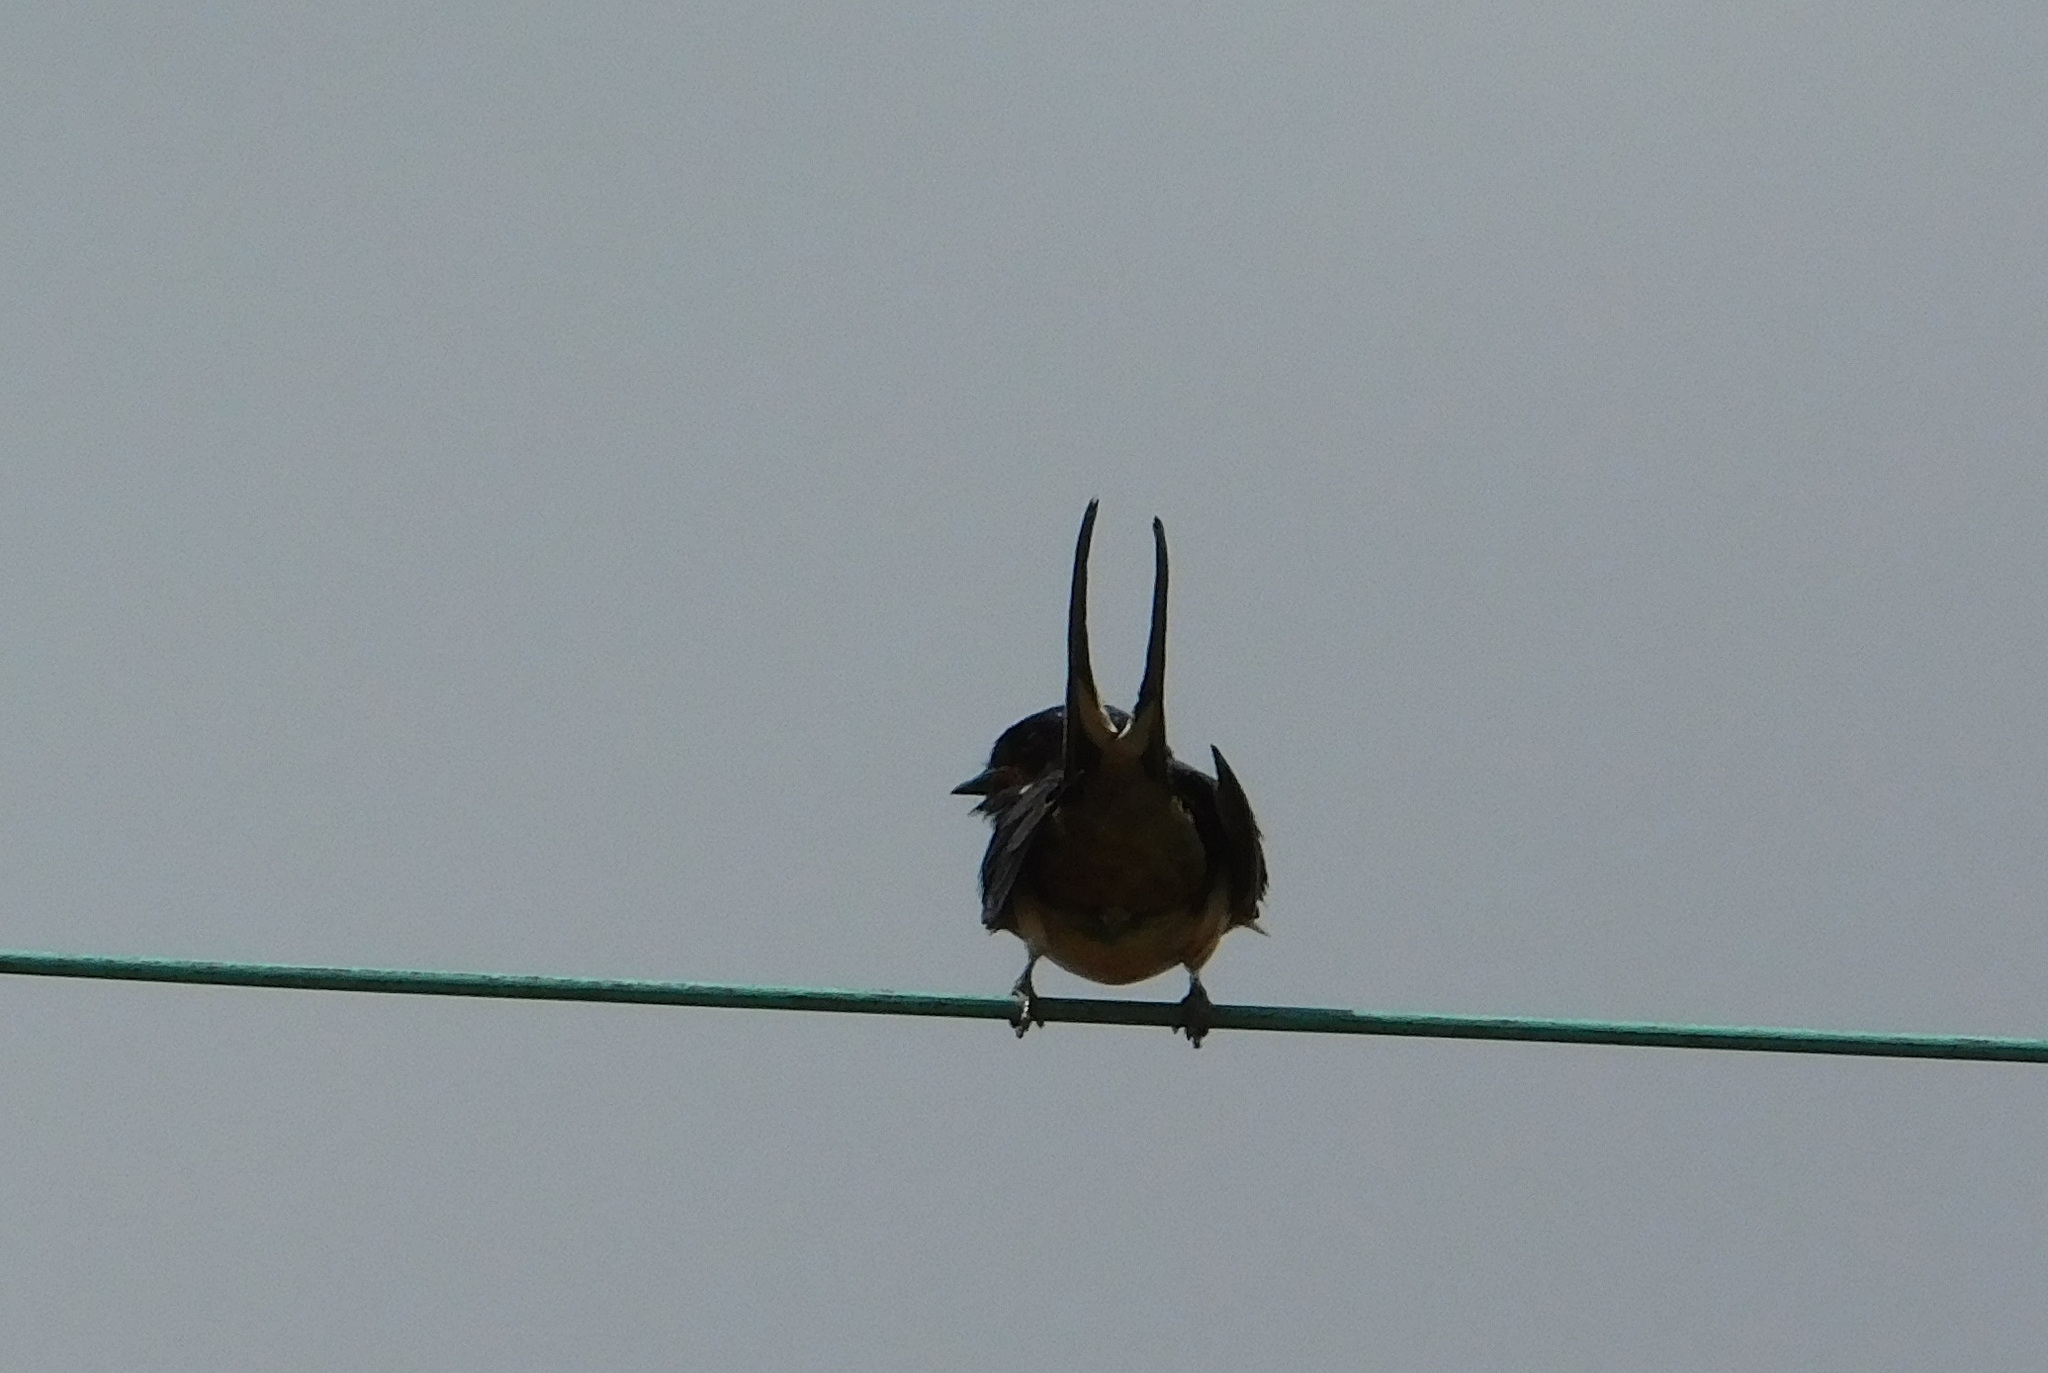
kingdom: Animalia
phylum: Chordata
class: Aves
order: Passeriformes
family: Hirundinidae
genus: Hirundo
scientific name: Hirundo rustica
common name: Barn swallow
